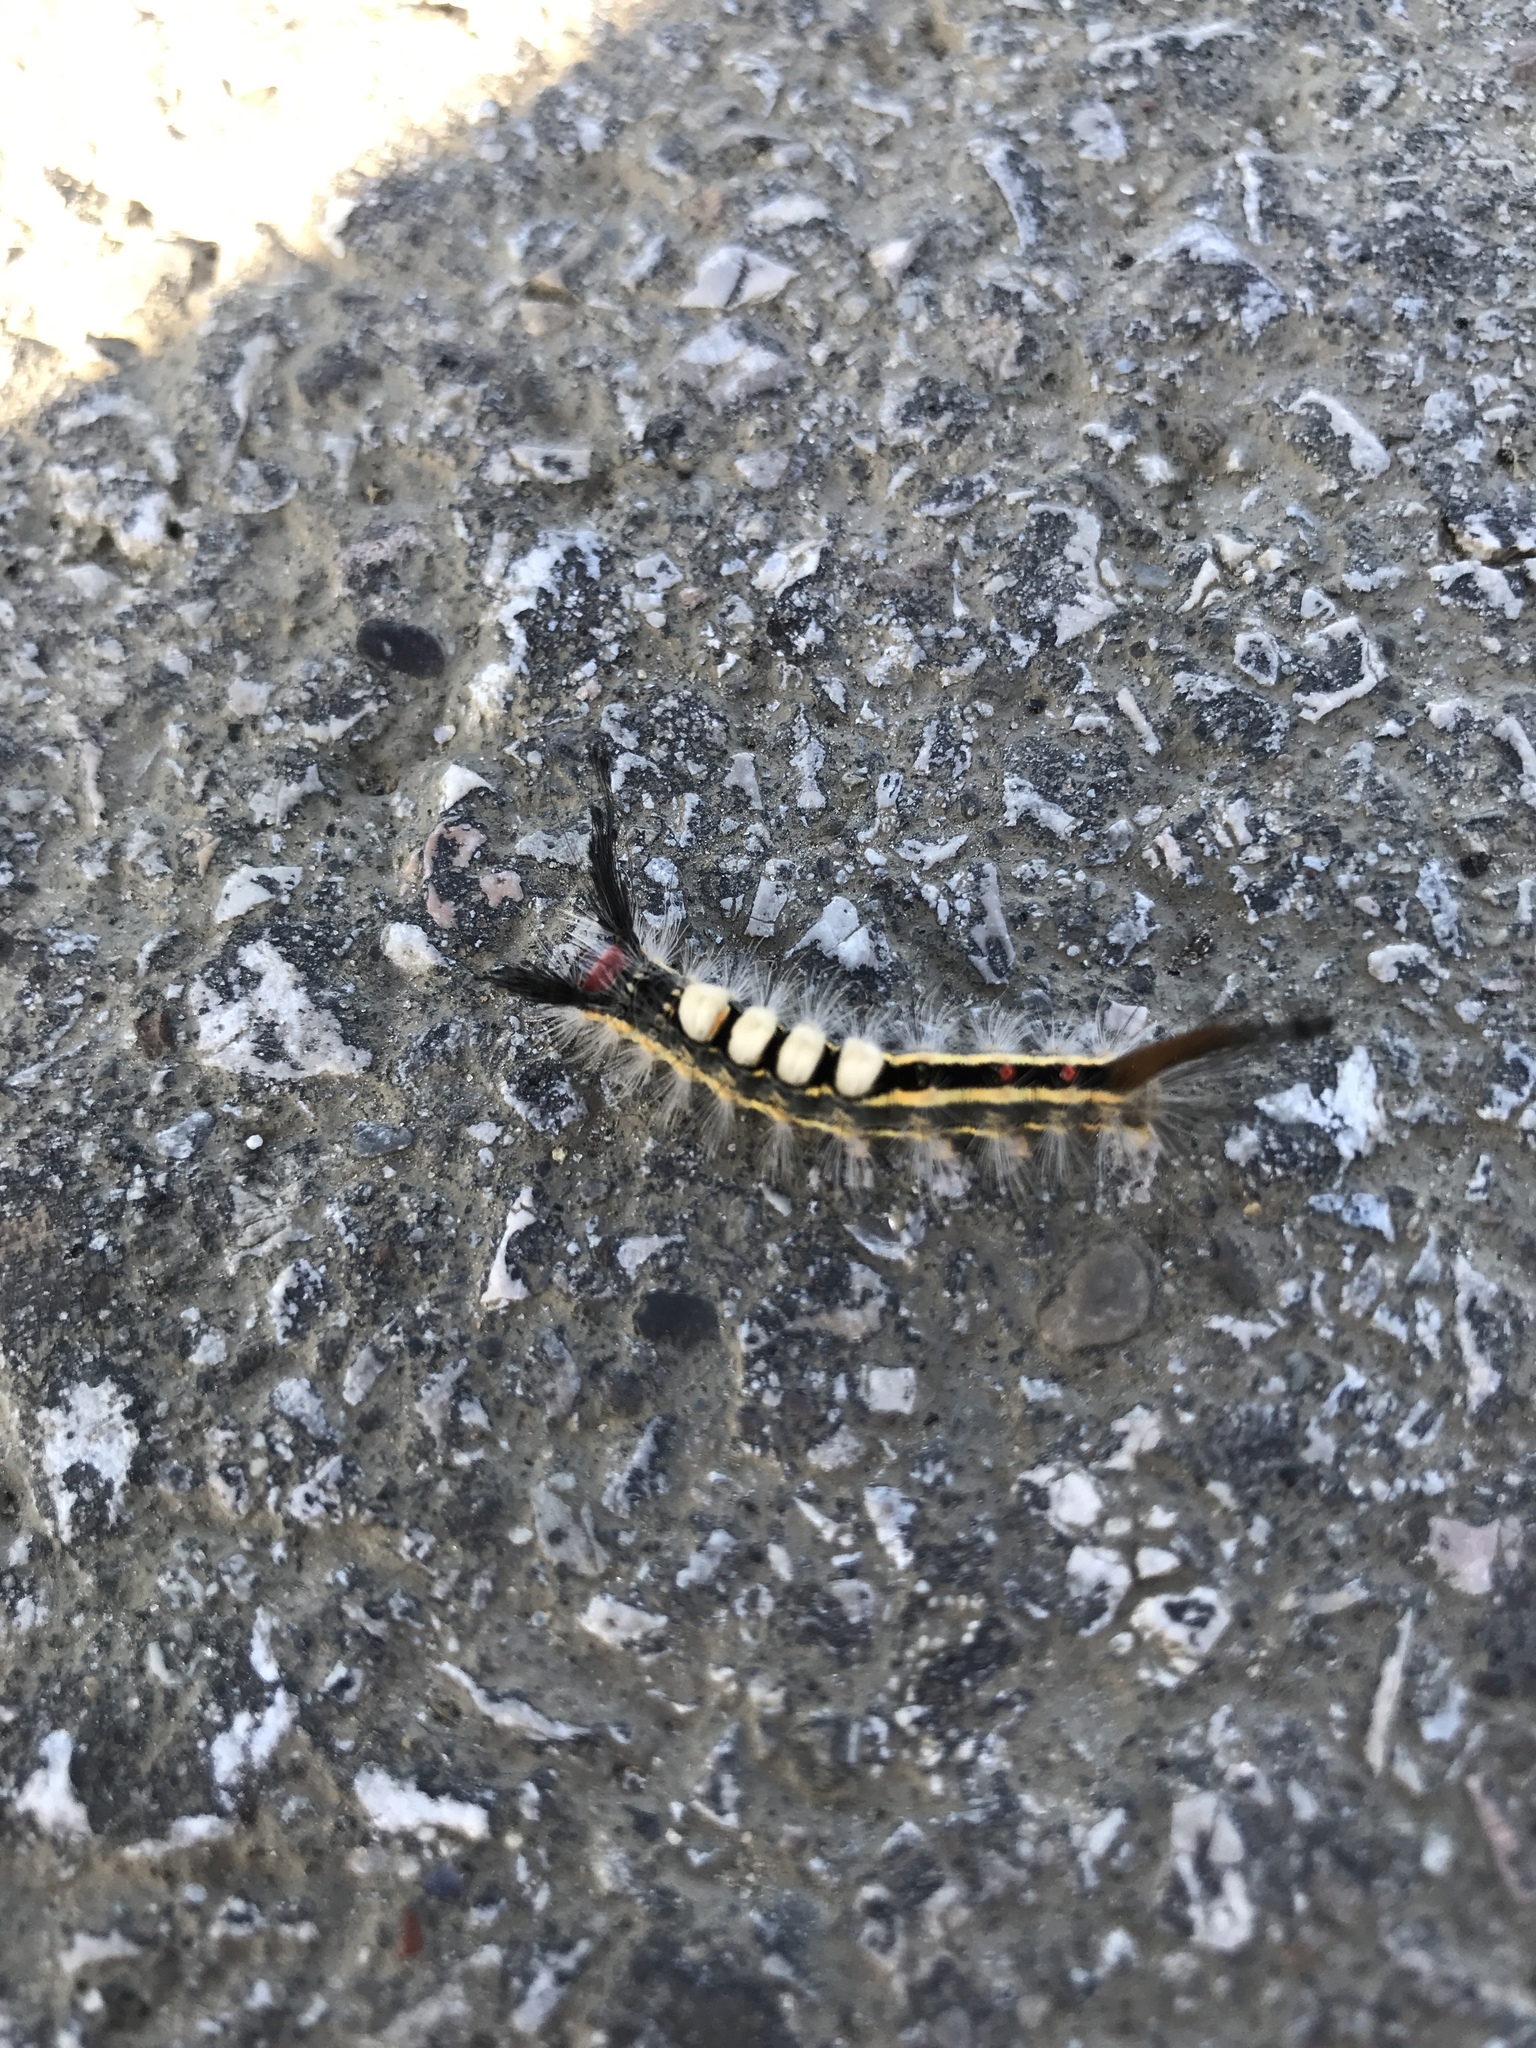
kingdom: Animalia
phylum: Arthropoda
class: Insecta
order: Lepidoptera
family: Erebidae
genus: Orgyia
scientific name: Orgyia leucostigma
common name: White-marked tussock moth
